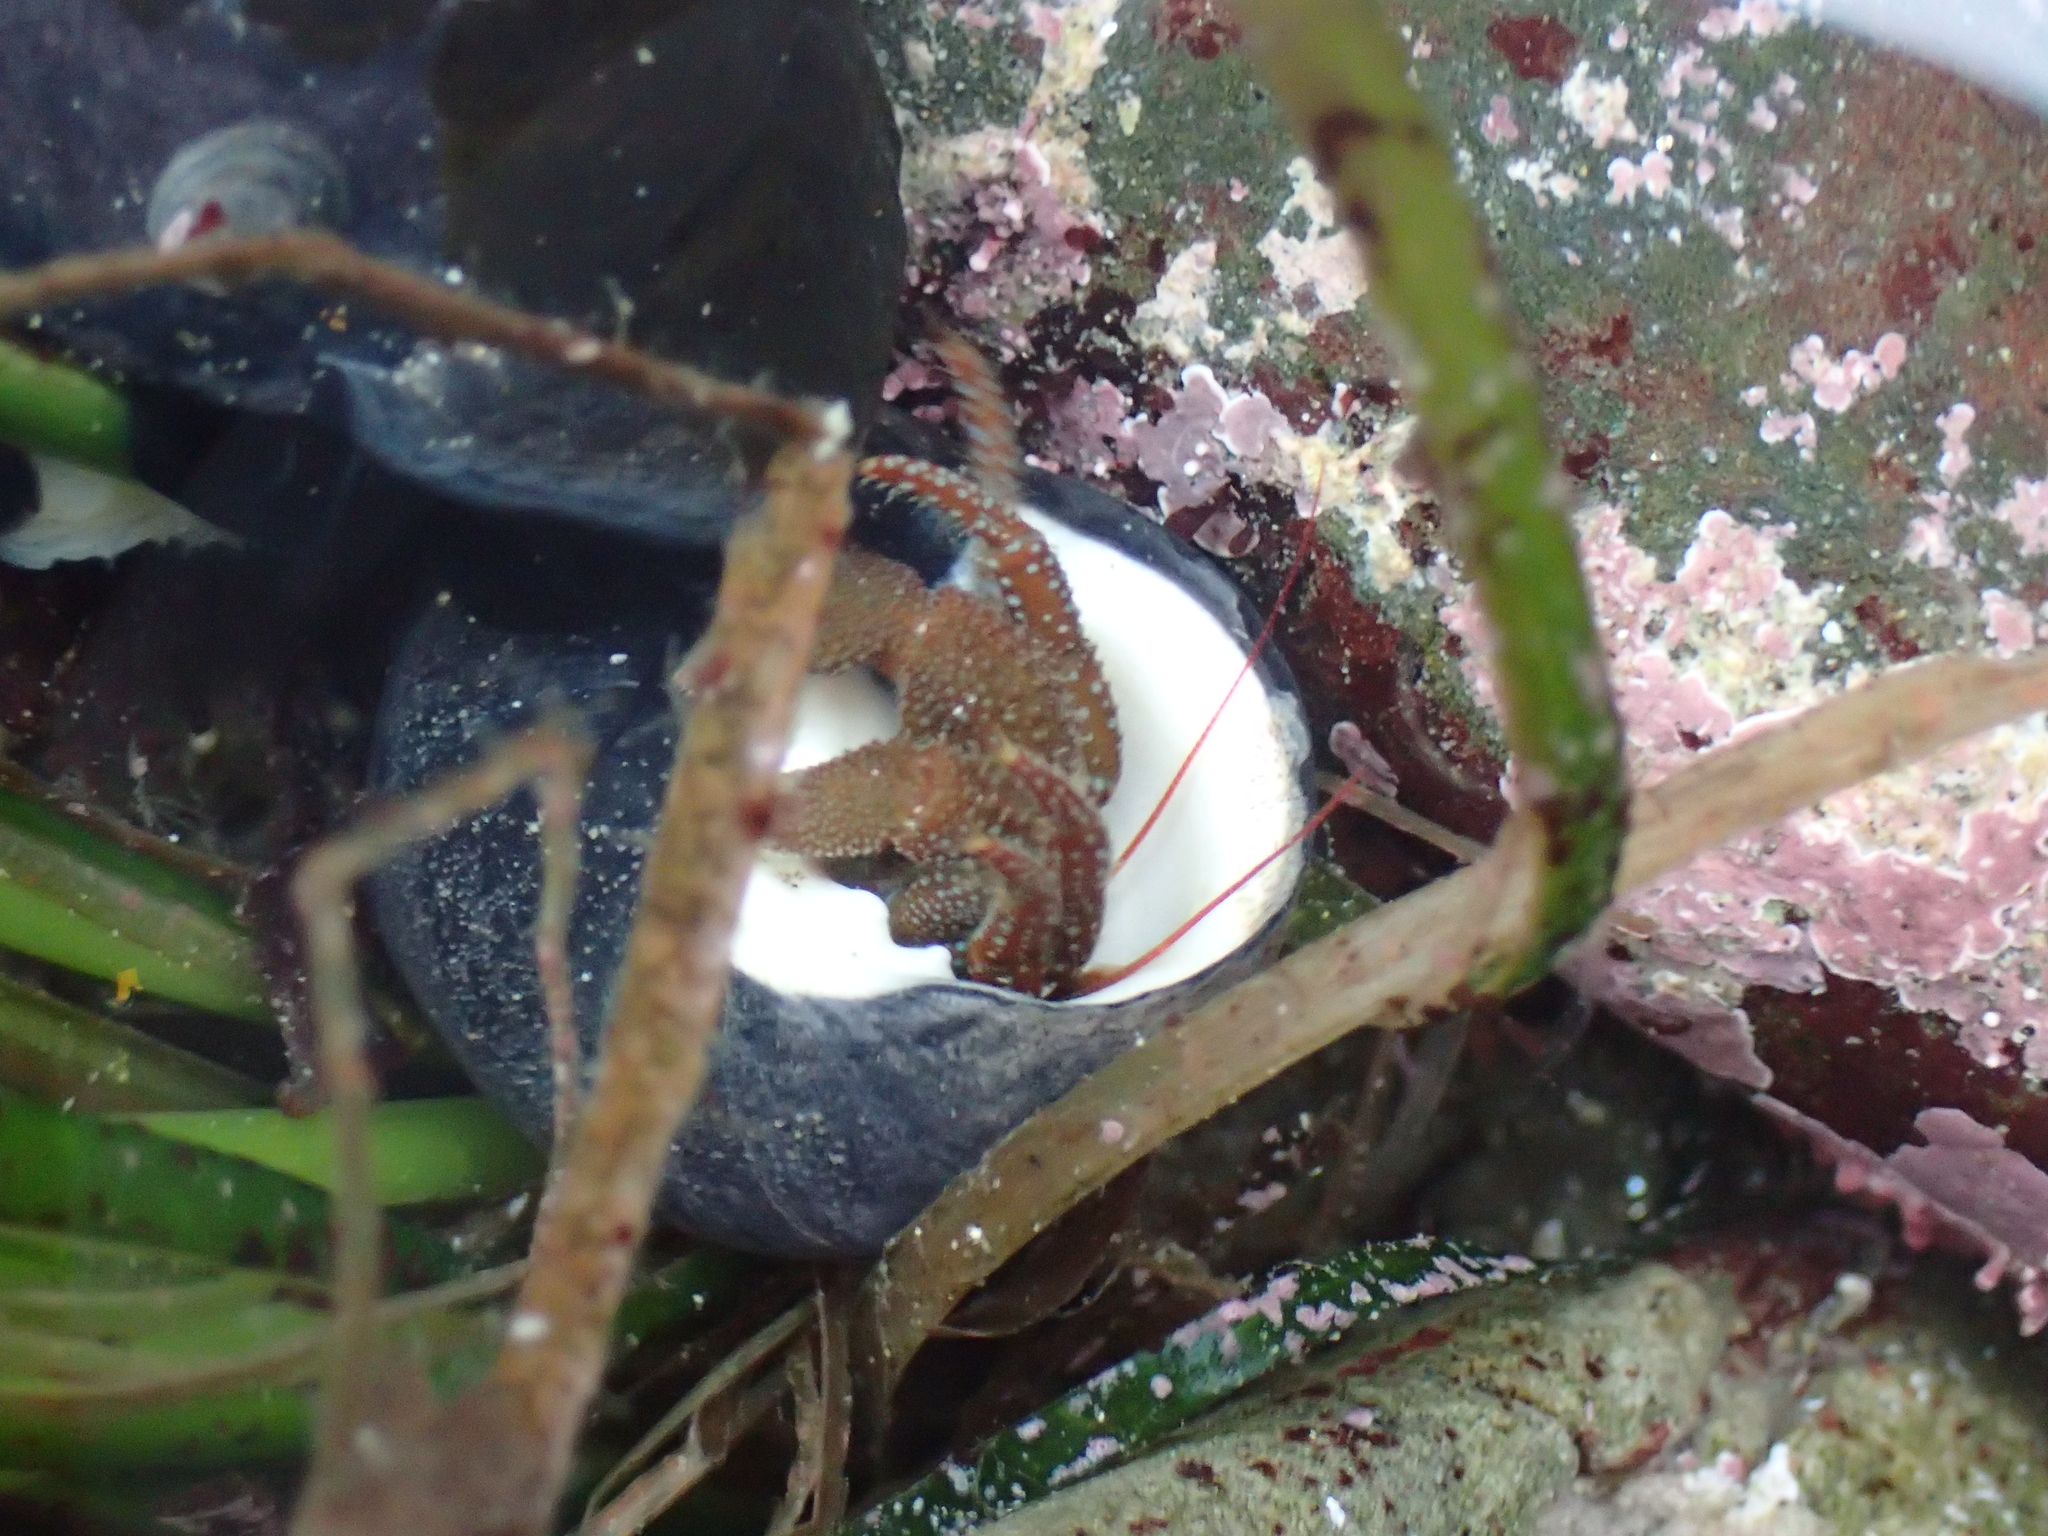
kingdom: Animalia
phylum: Arthropoda
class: Malacostraca
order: Decapoda
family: Paguridae
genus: Pagurus
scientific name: Pagurus granosimanus
